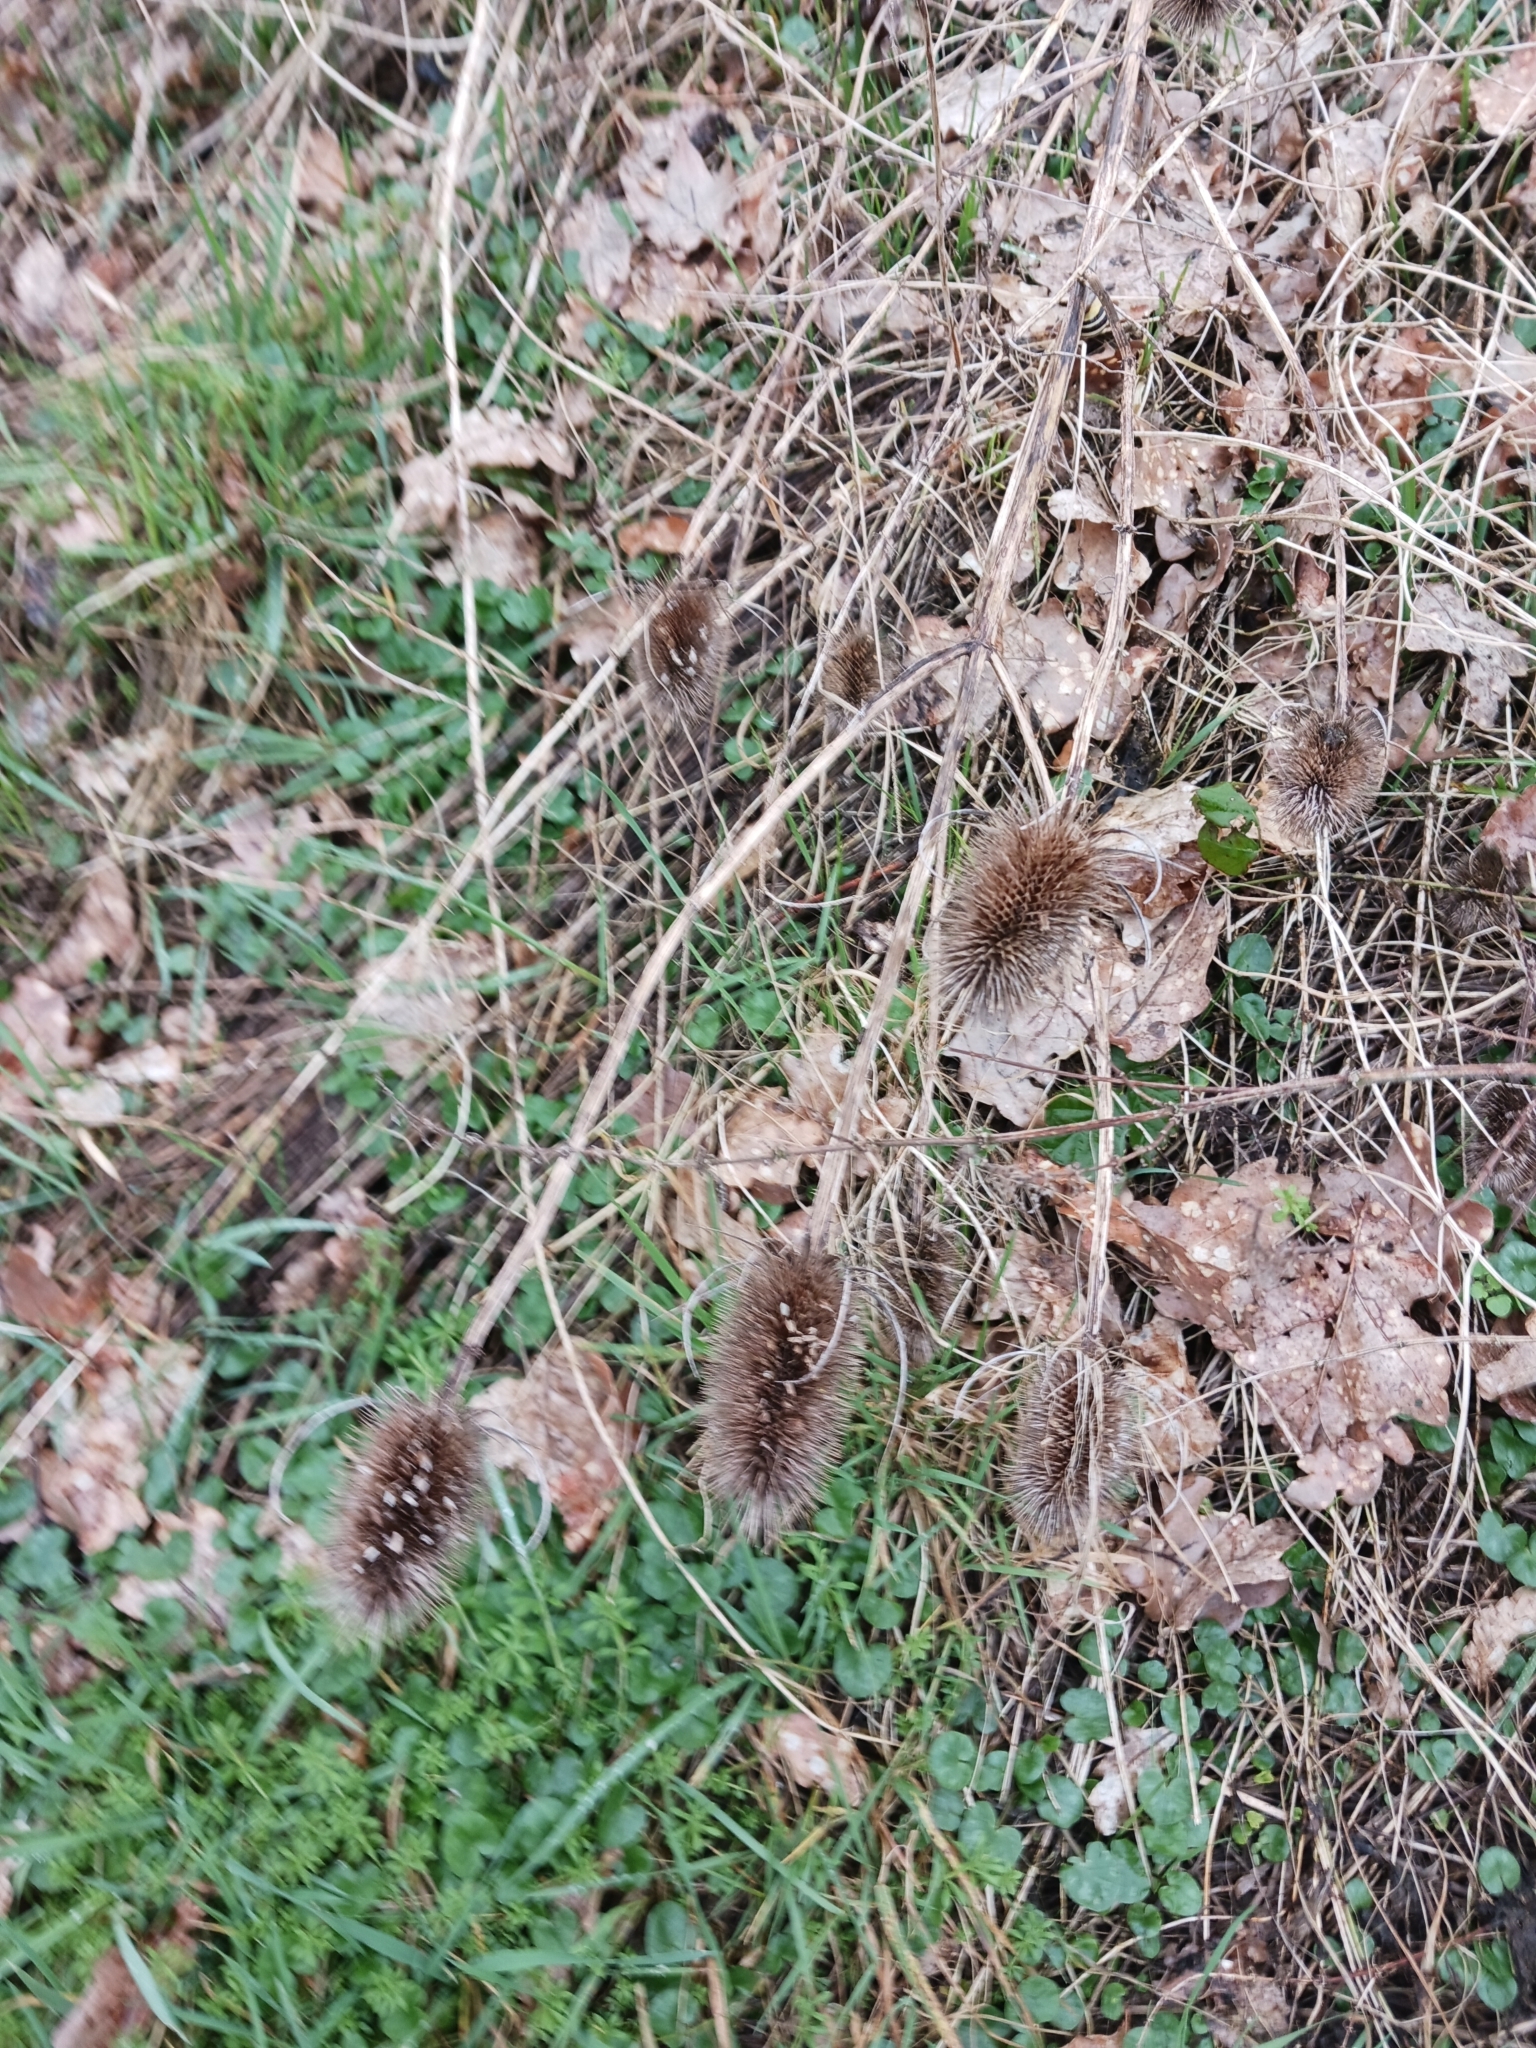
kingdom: Plantae
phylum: Tracheophyta
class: Magnoliopsida
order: Dipsacales
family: Caprifoliaceae
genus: Dipsacus
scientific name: Dipsacus fullonum
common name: Teasel
